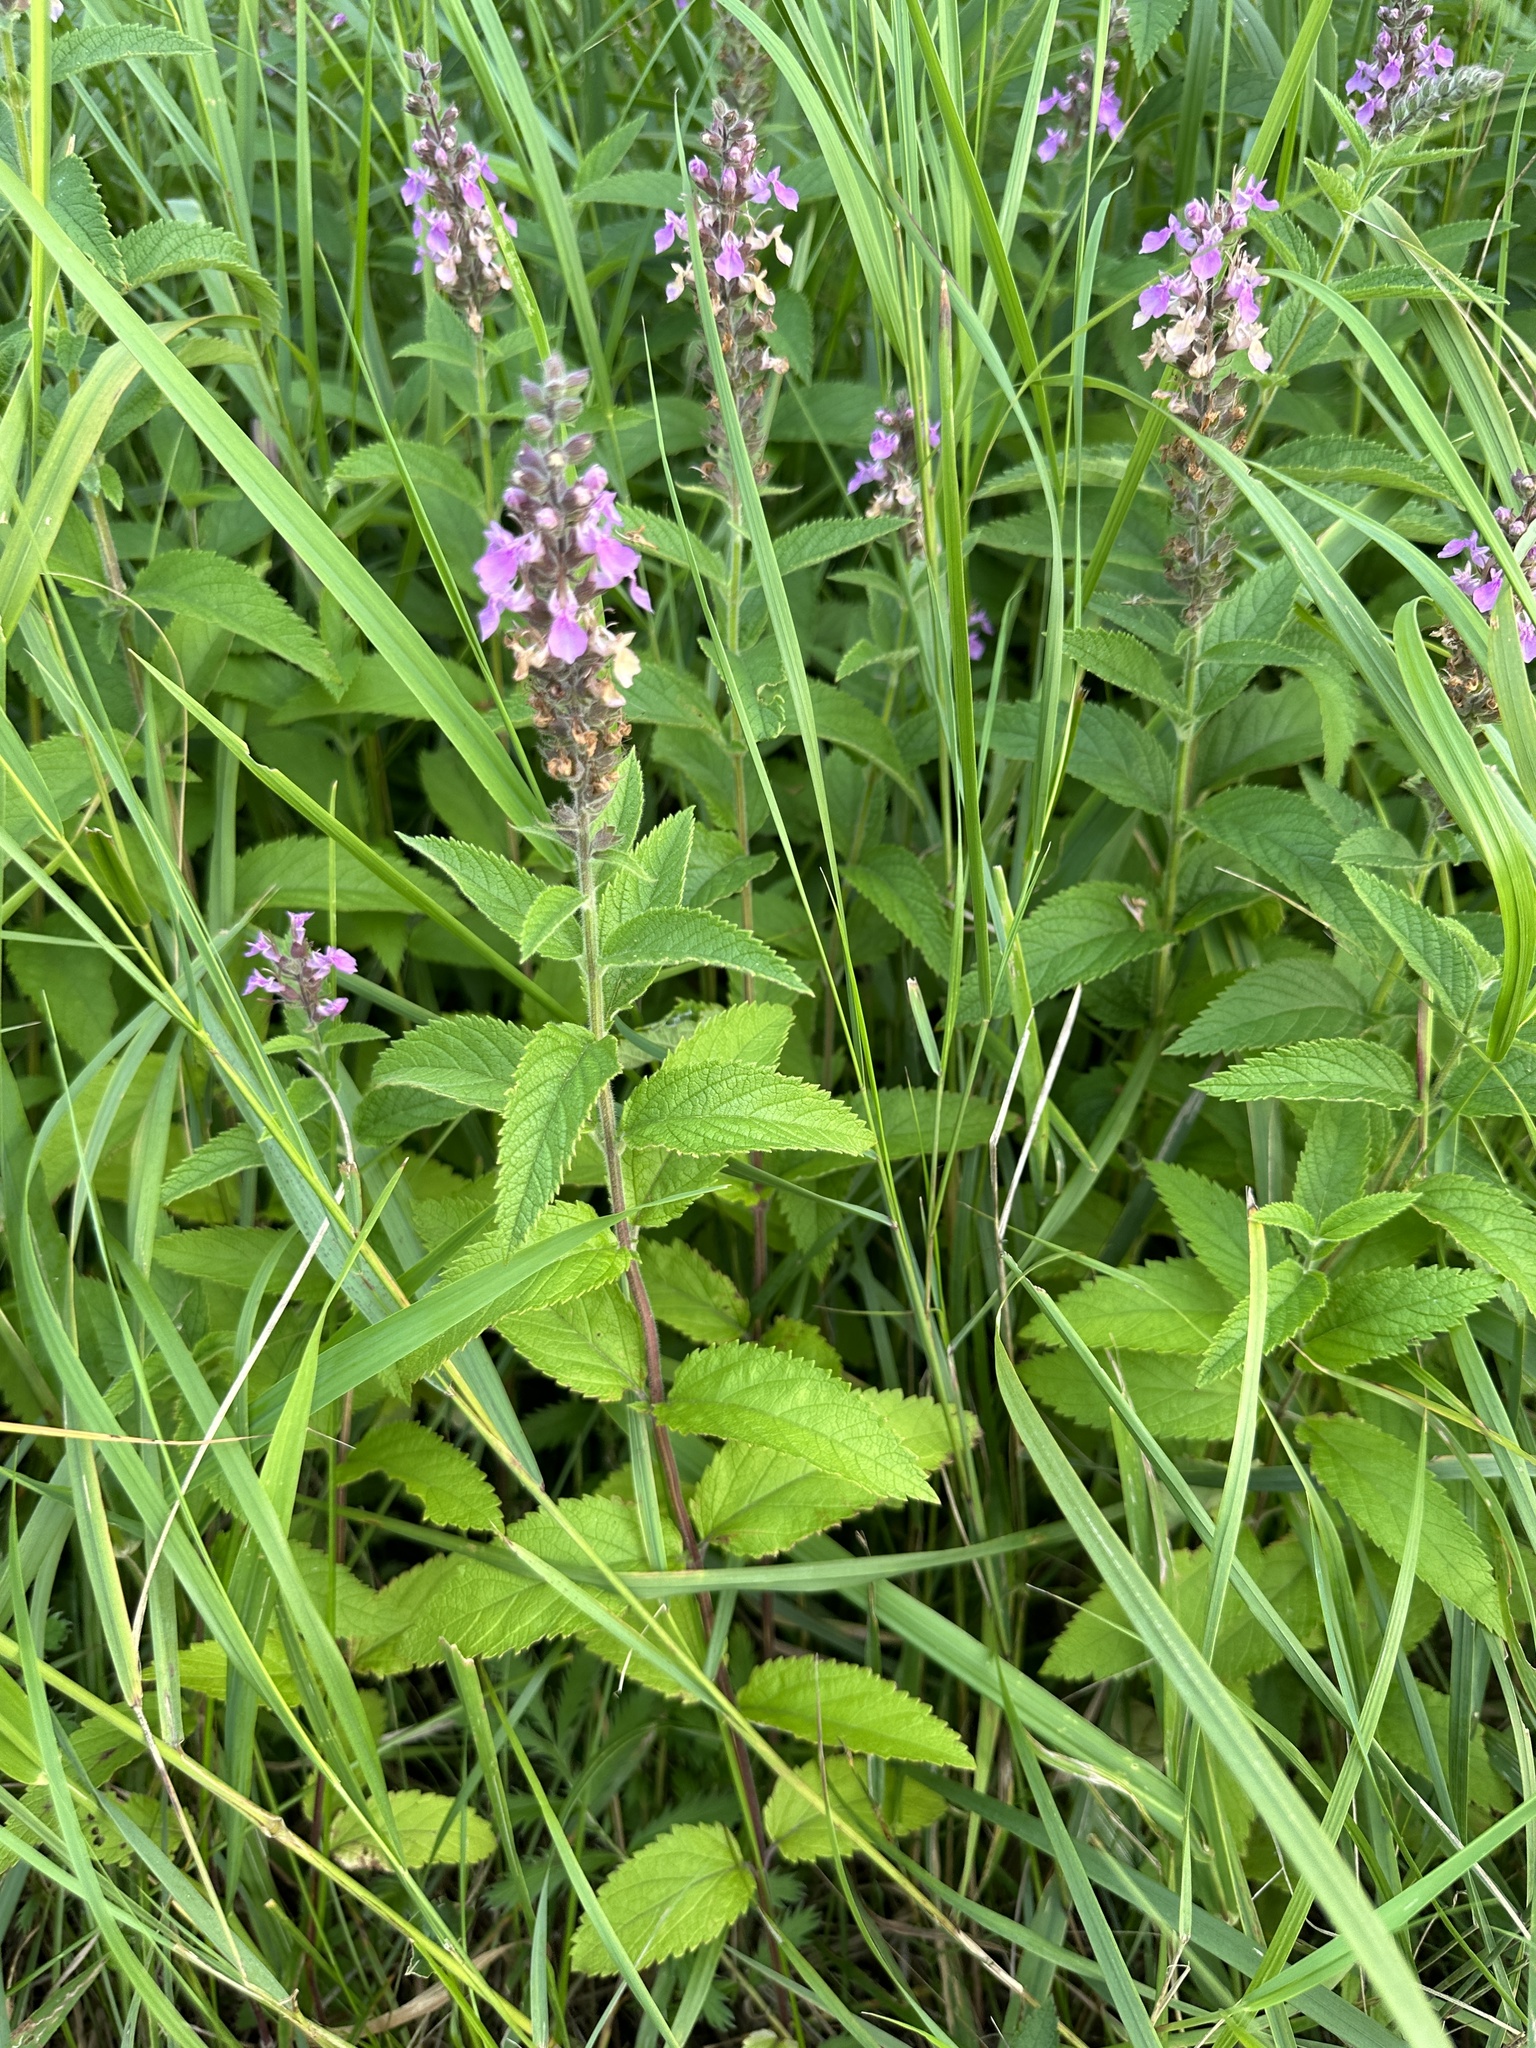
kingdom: Plantae
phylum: Tracheophyta
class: Magnoliopsida
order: Lamiales
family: Lamiaceae
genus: Stachys
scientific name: Stachys hispida
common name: Hispid hedge-nettle
